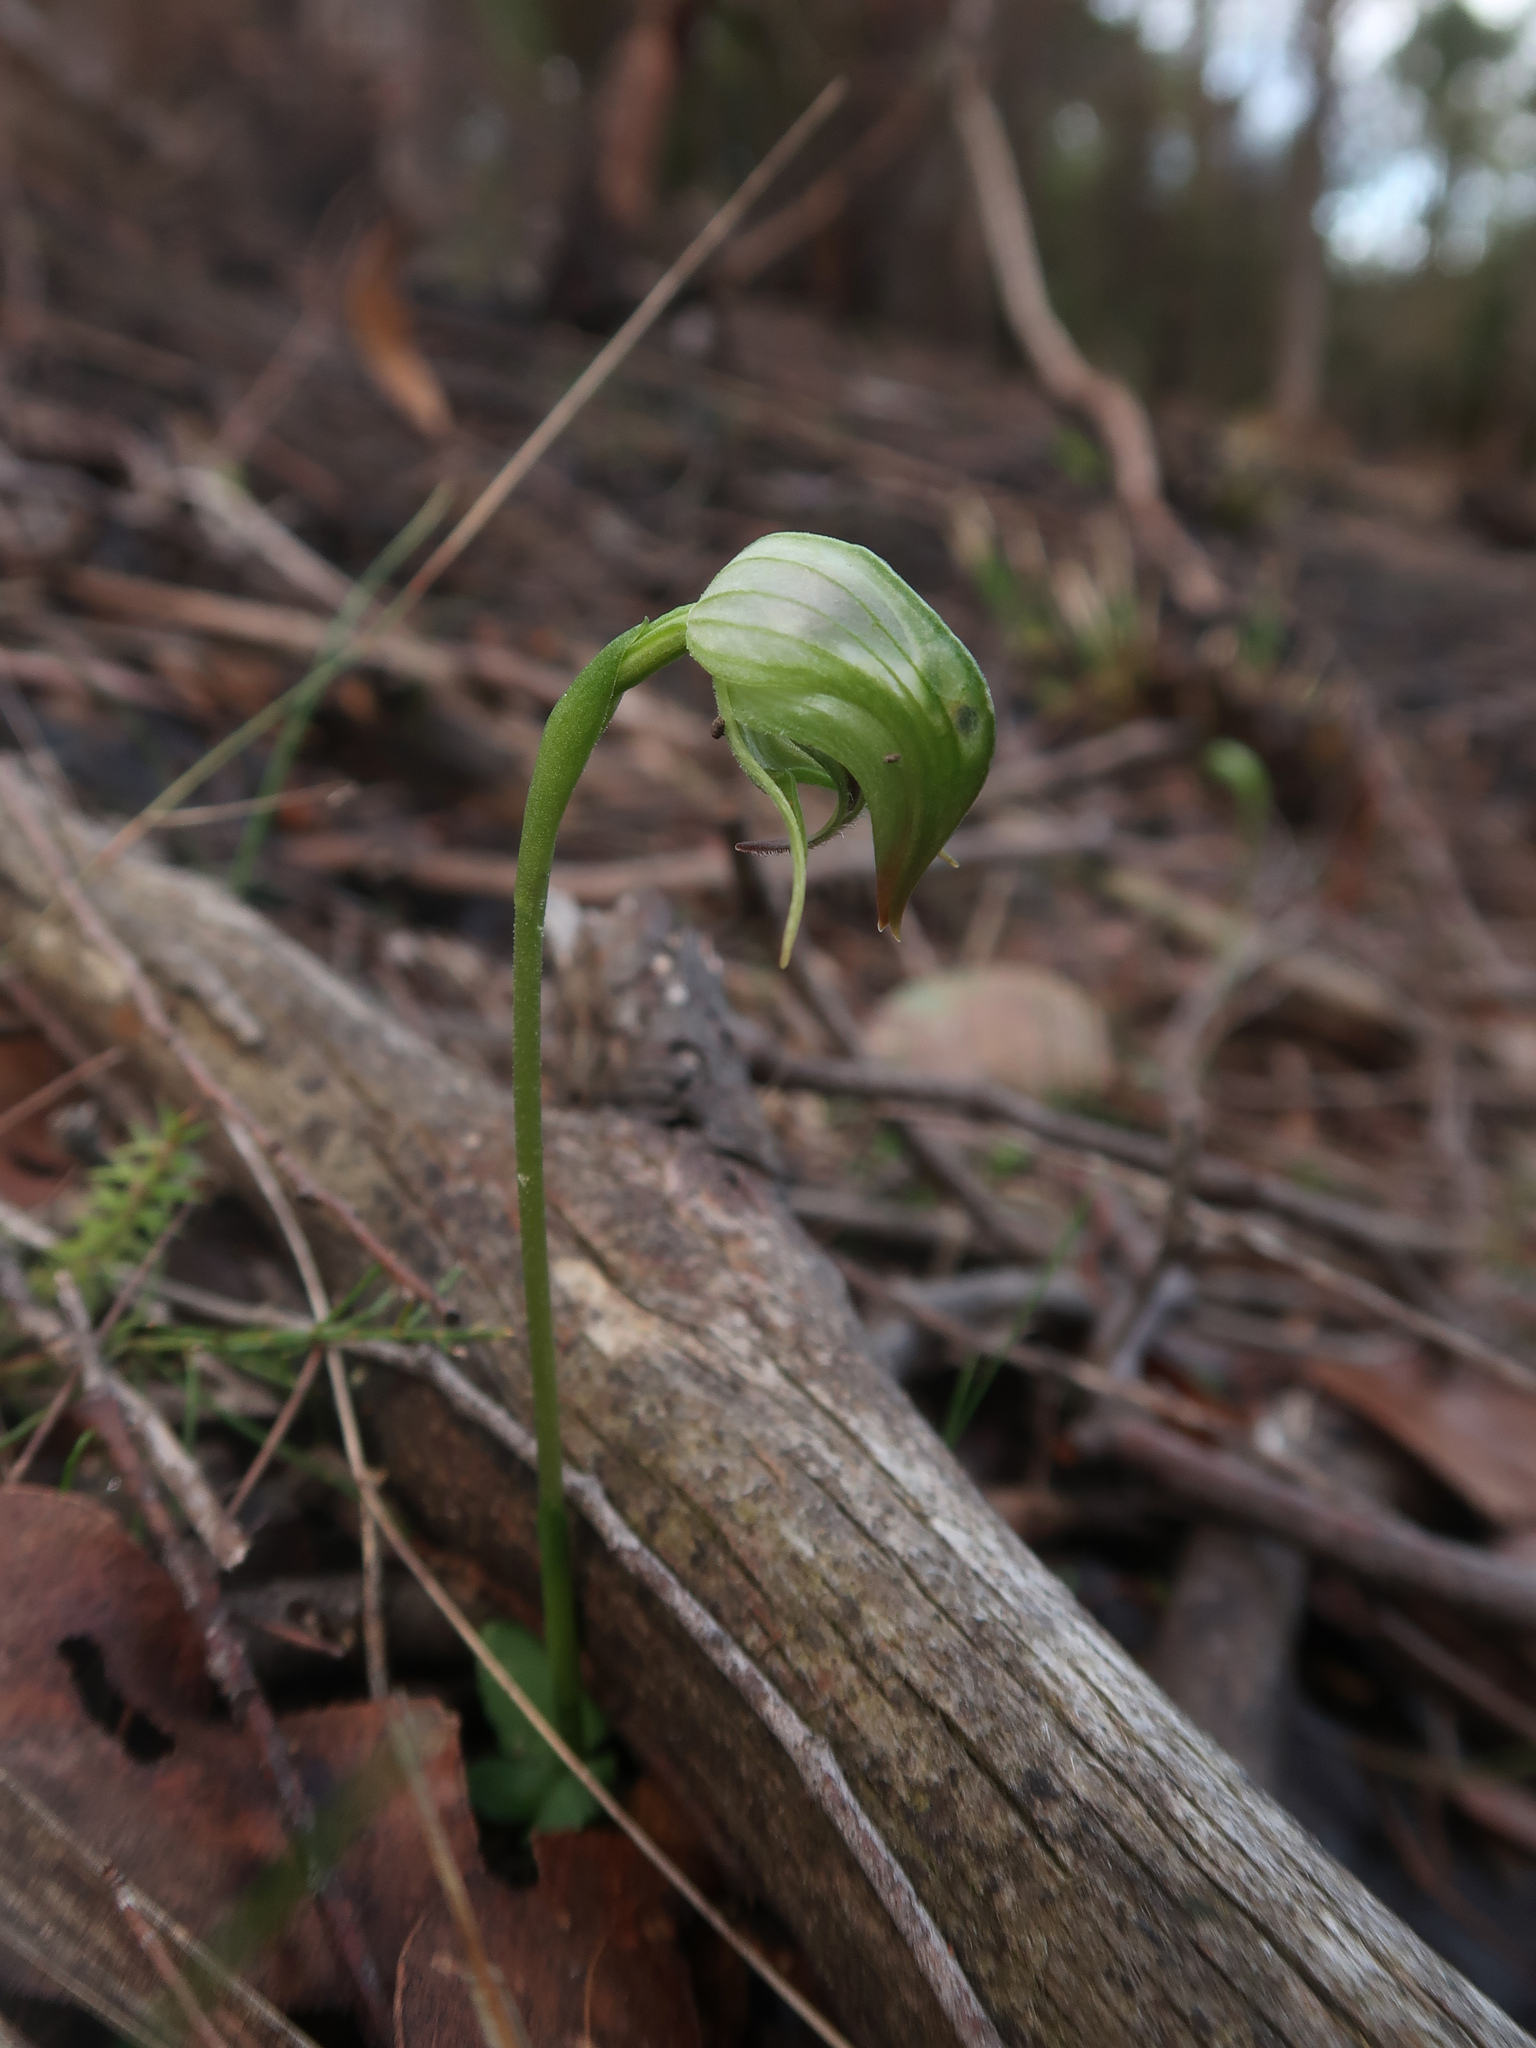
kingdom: Plantae
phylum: Tracheophyta
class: Liliopsida
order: Asparagales
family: Orchidaceae
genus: Pterostylis
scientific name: Pterostylis nutans
